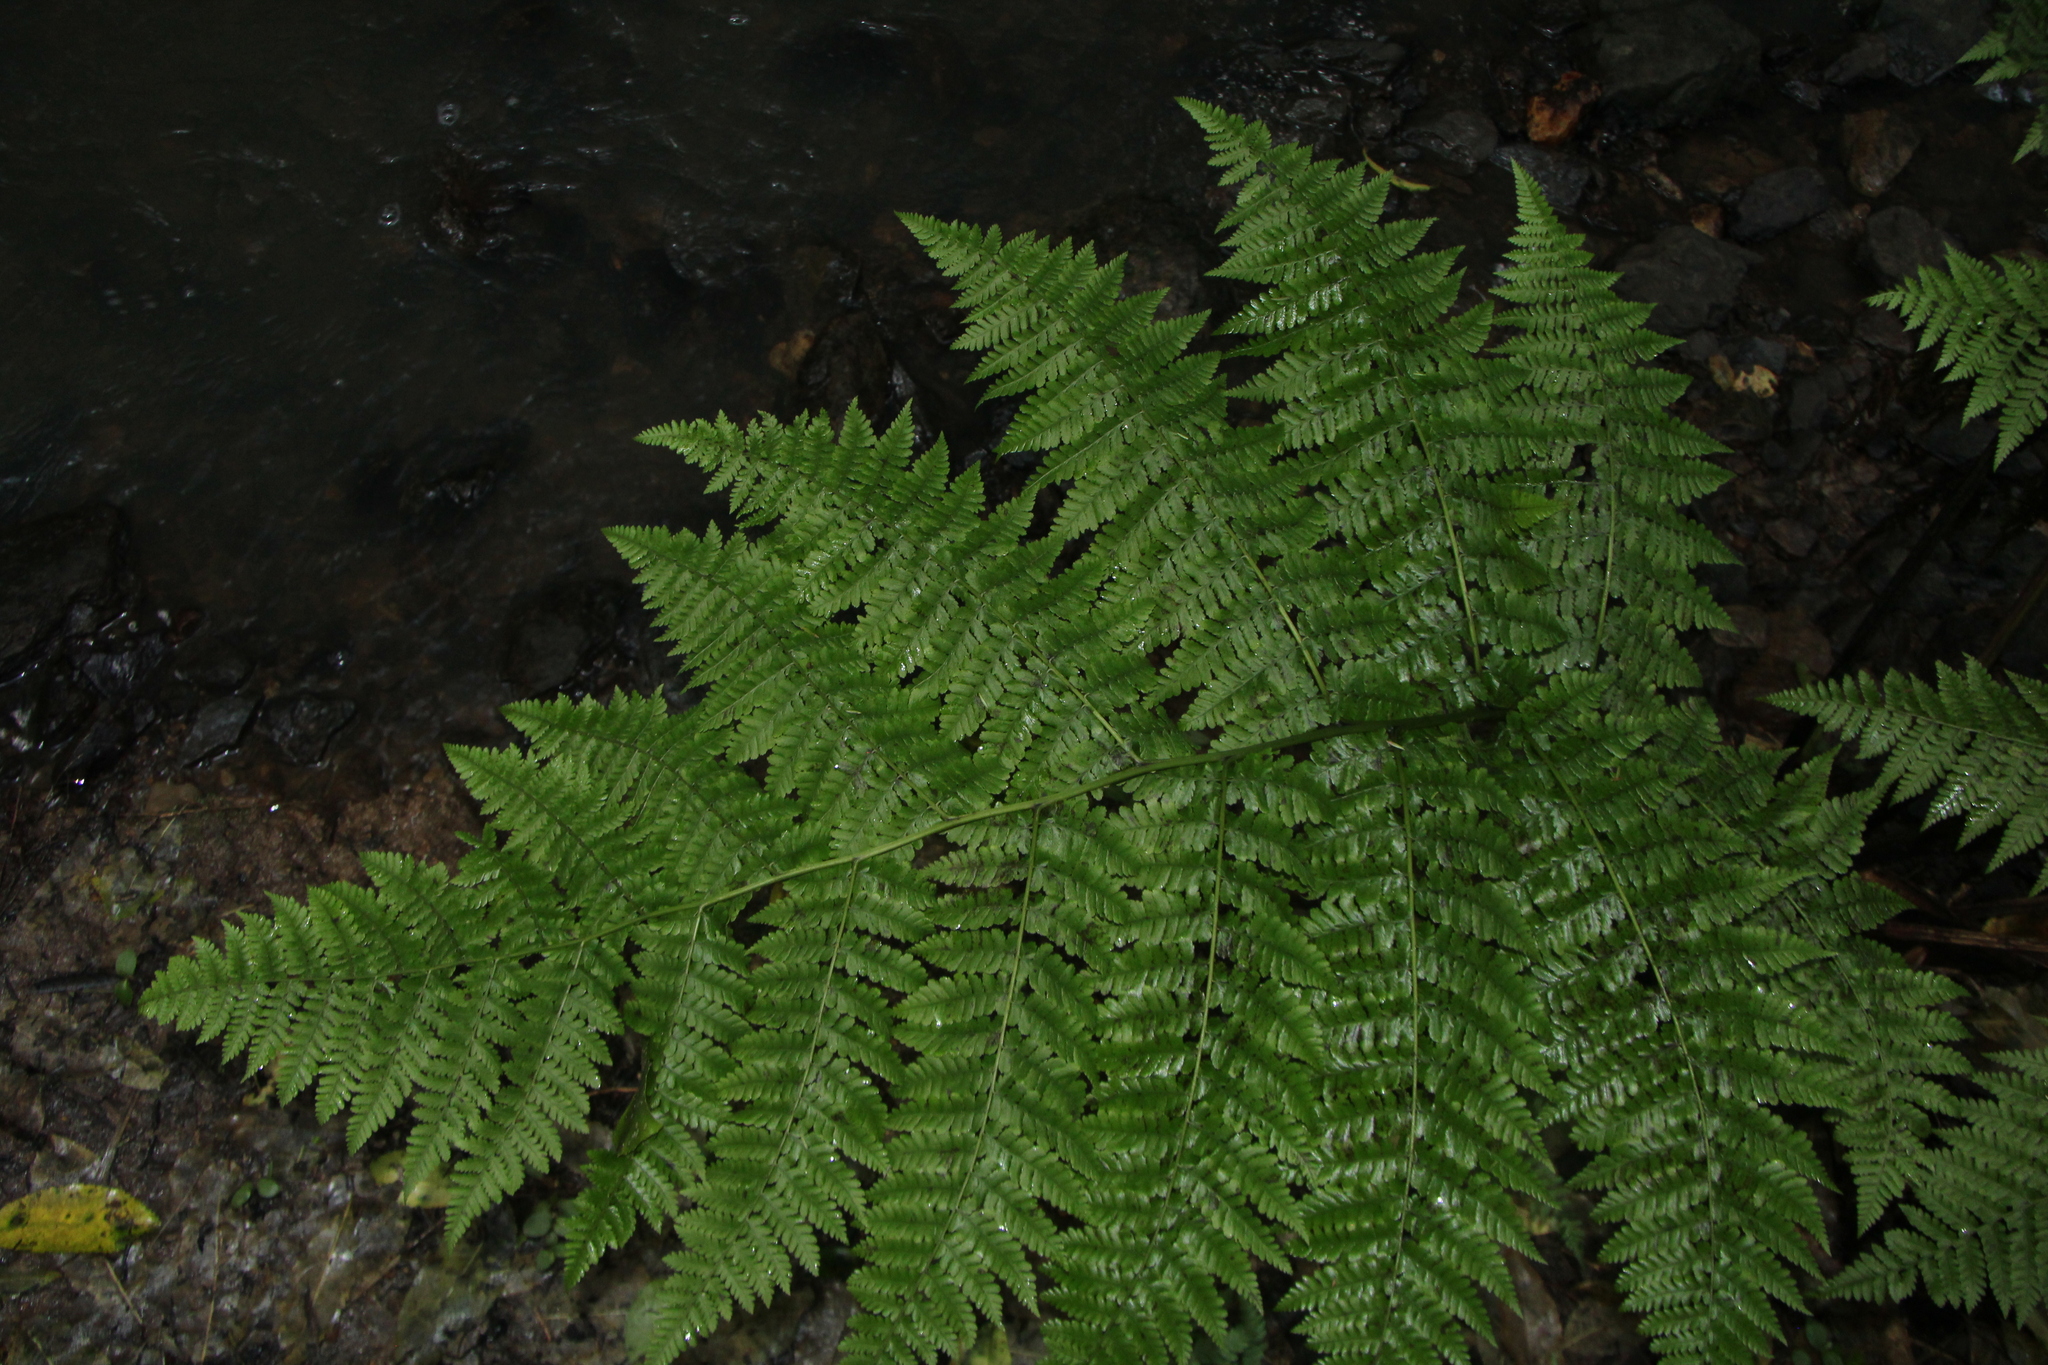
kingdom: Plantae
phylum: Tracheophyta
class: Polypodiopsida
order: Polypodiales
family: Athyriaceae
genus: Diplazium
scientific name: Diplazium australe
